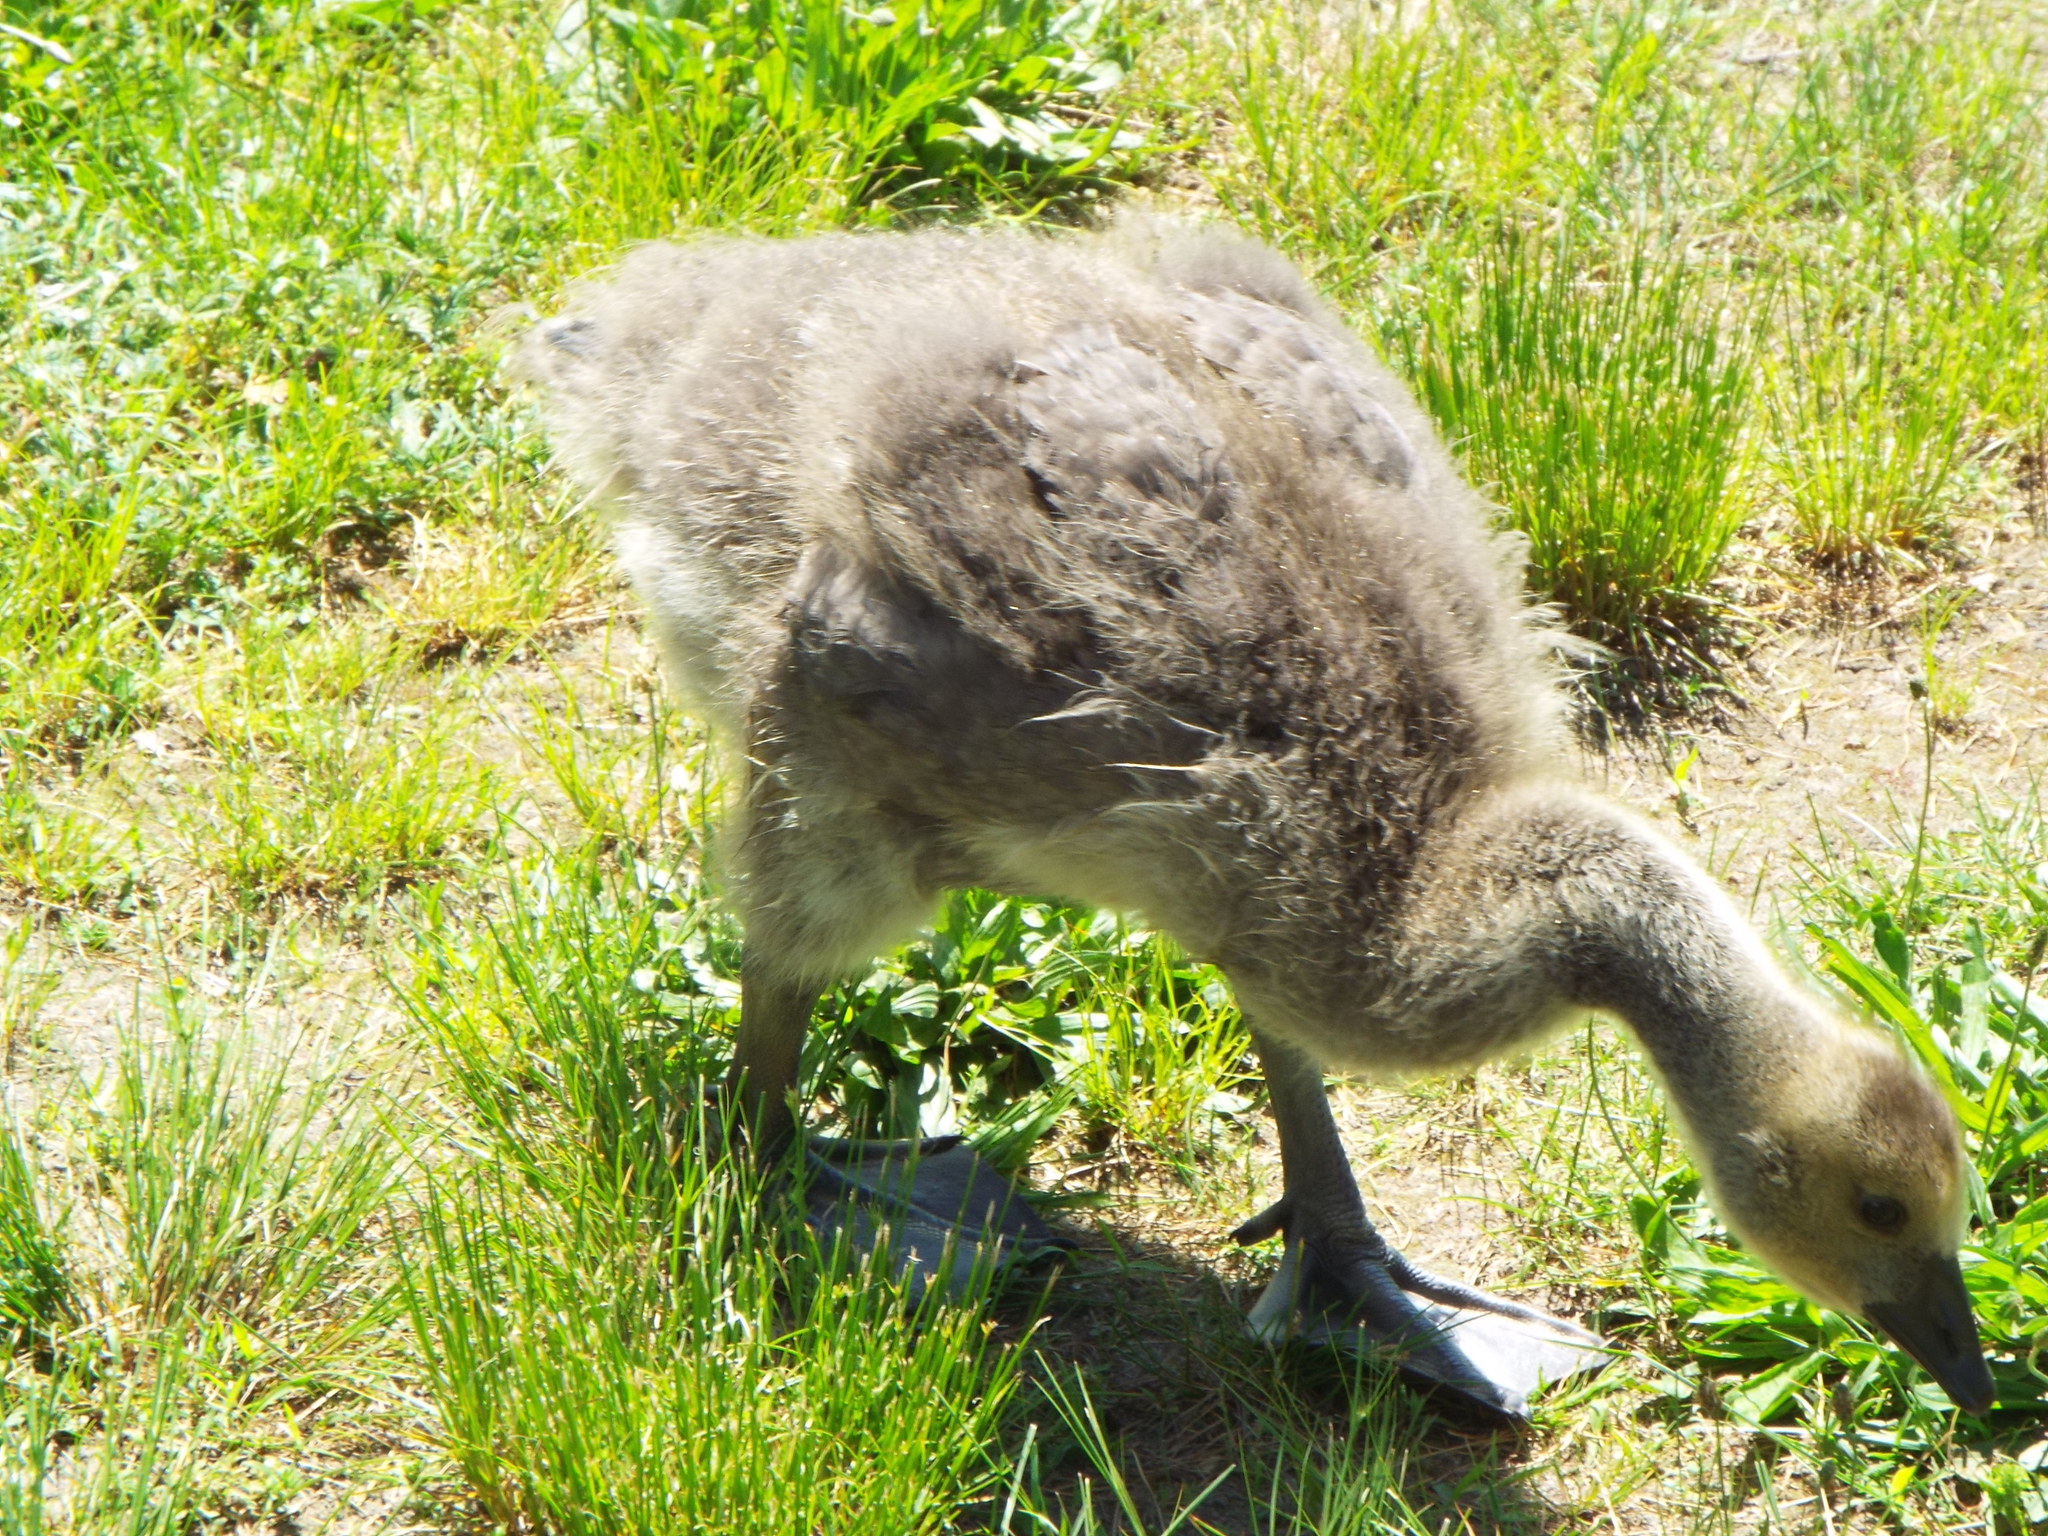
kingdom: Animalia
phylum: Chordata
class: Aves
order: Anseriformes
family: Anatidae
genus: Branta
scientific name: Branta canadensis
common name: Canada goose
